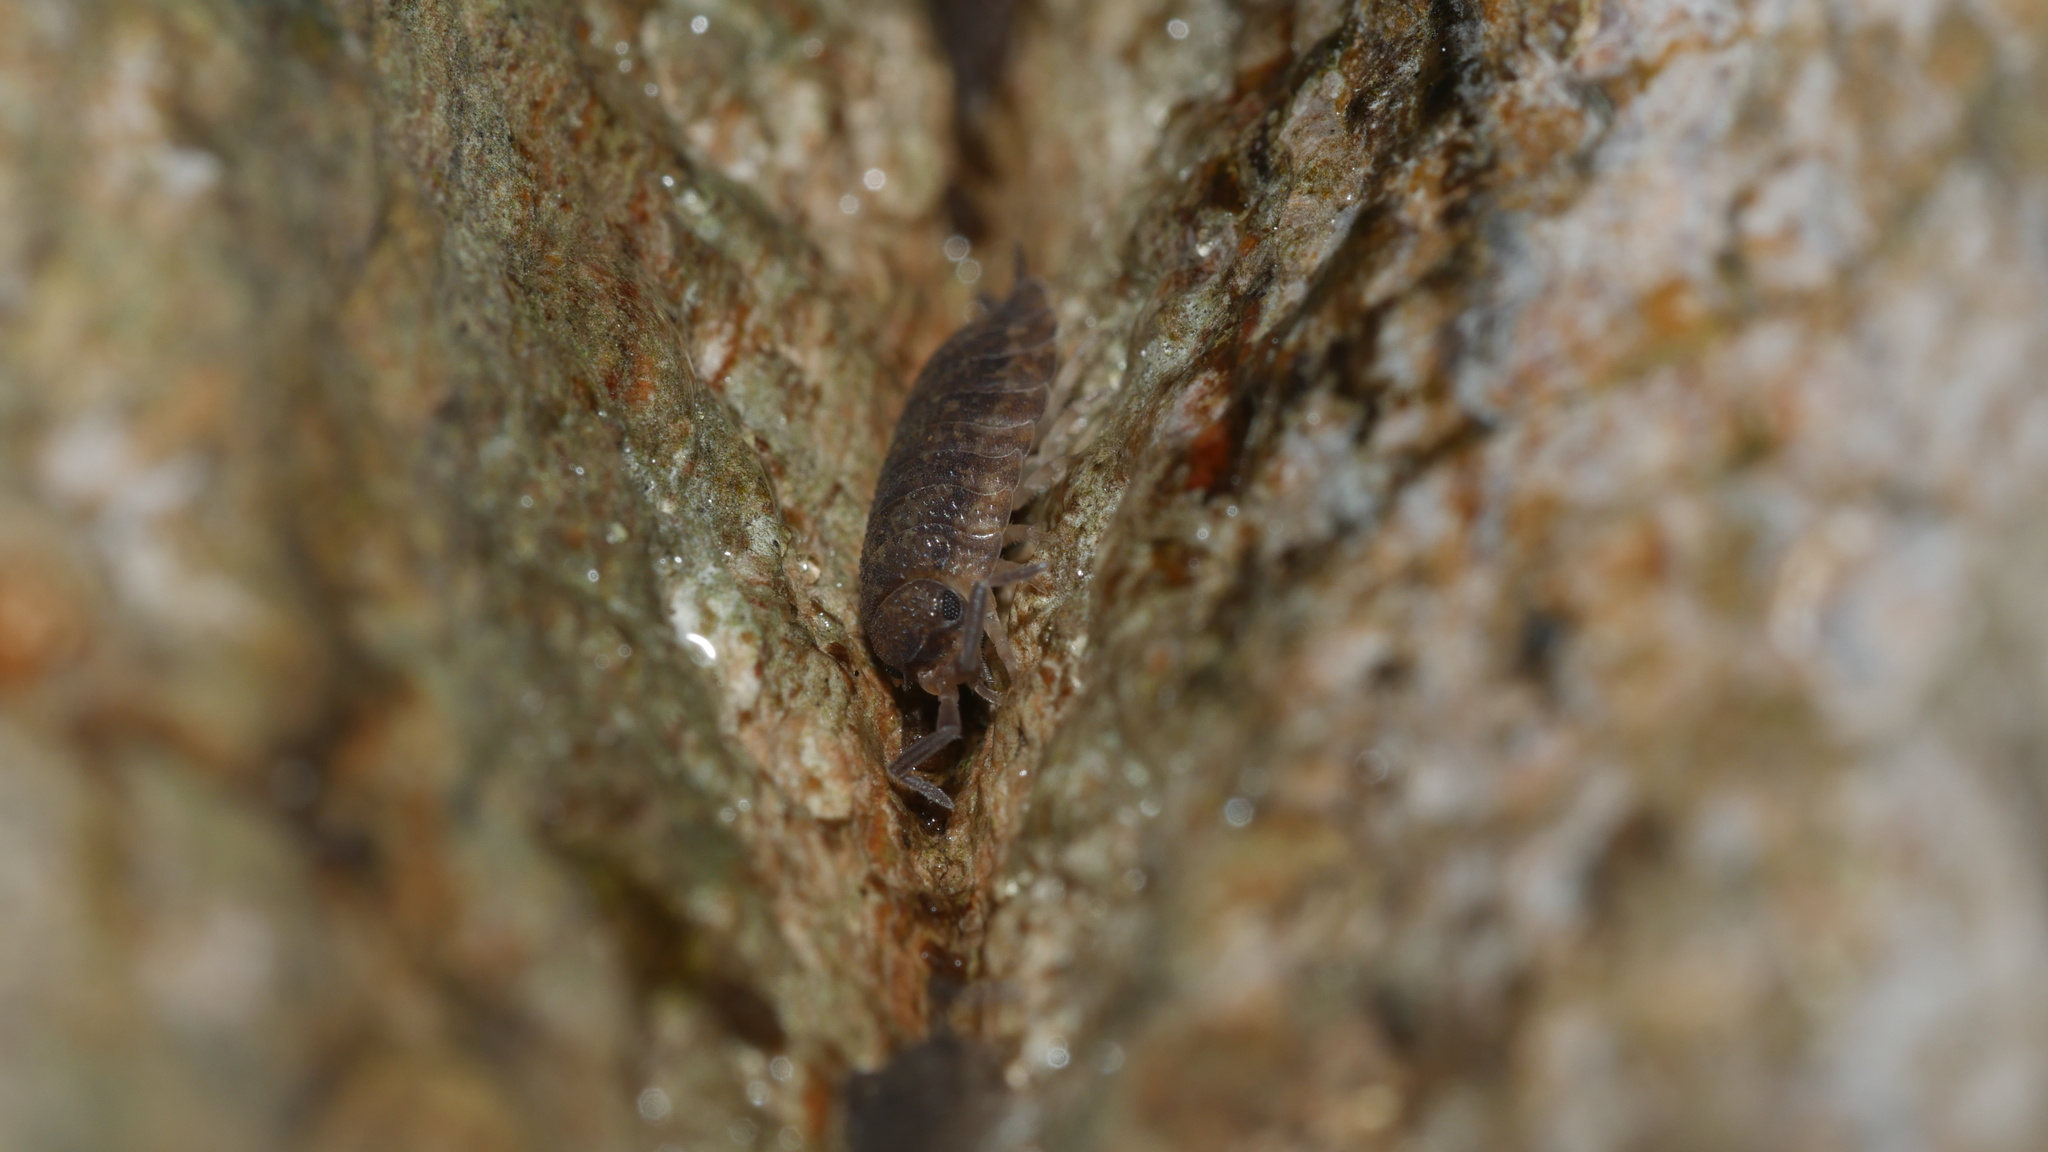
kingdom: Animalia
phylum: Arthropoda
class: Malacostraca
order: Isopoda
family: Porcellionidae
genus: Porcellio
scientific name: Porcellio scaber
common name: Common rough woodlouse
